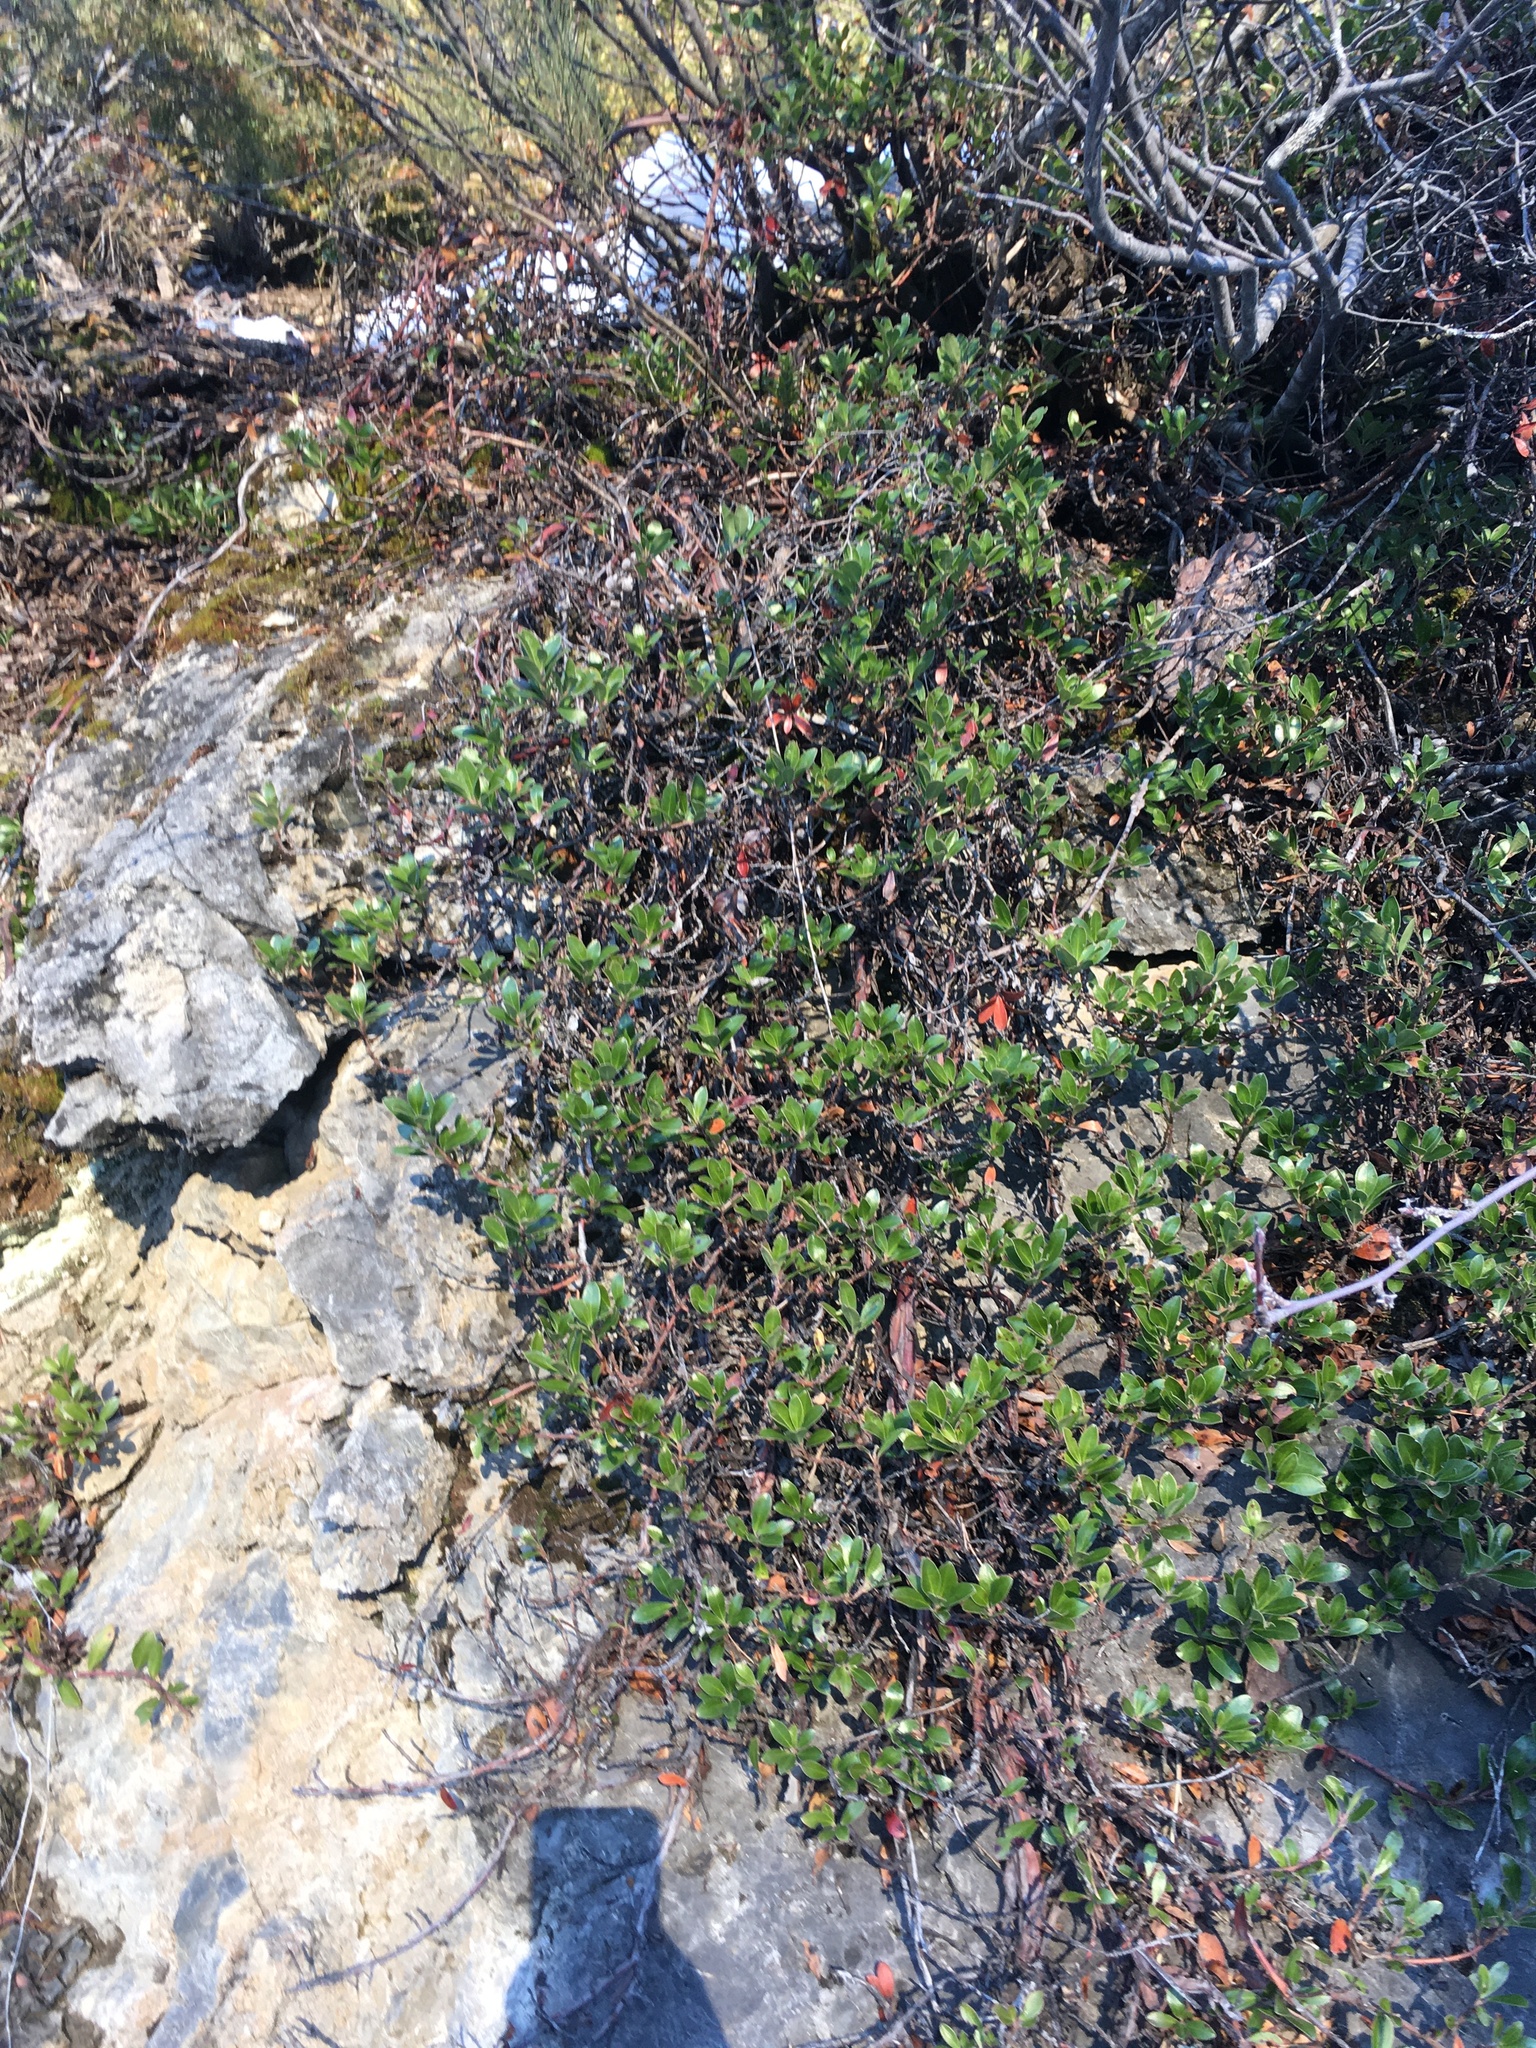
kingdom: Plantae
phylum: Tracheophyta
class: Magnoliopsida
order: Ericales
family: Ericaceae
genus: Arctostaphylos
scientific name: Arctostaphylos uva-ursi
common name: Bearberry
